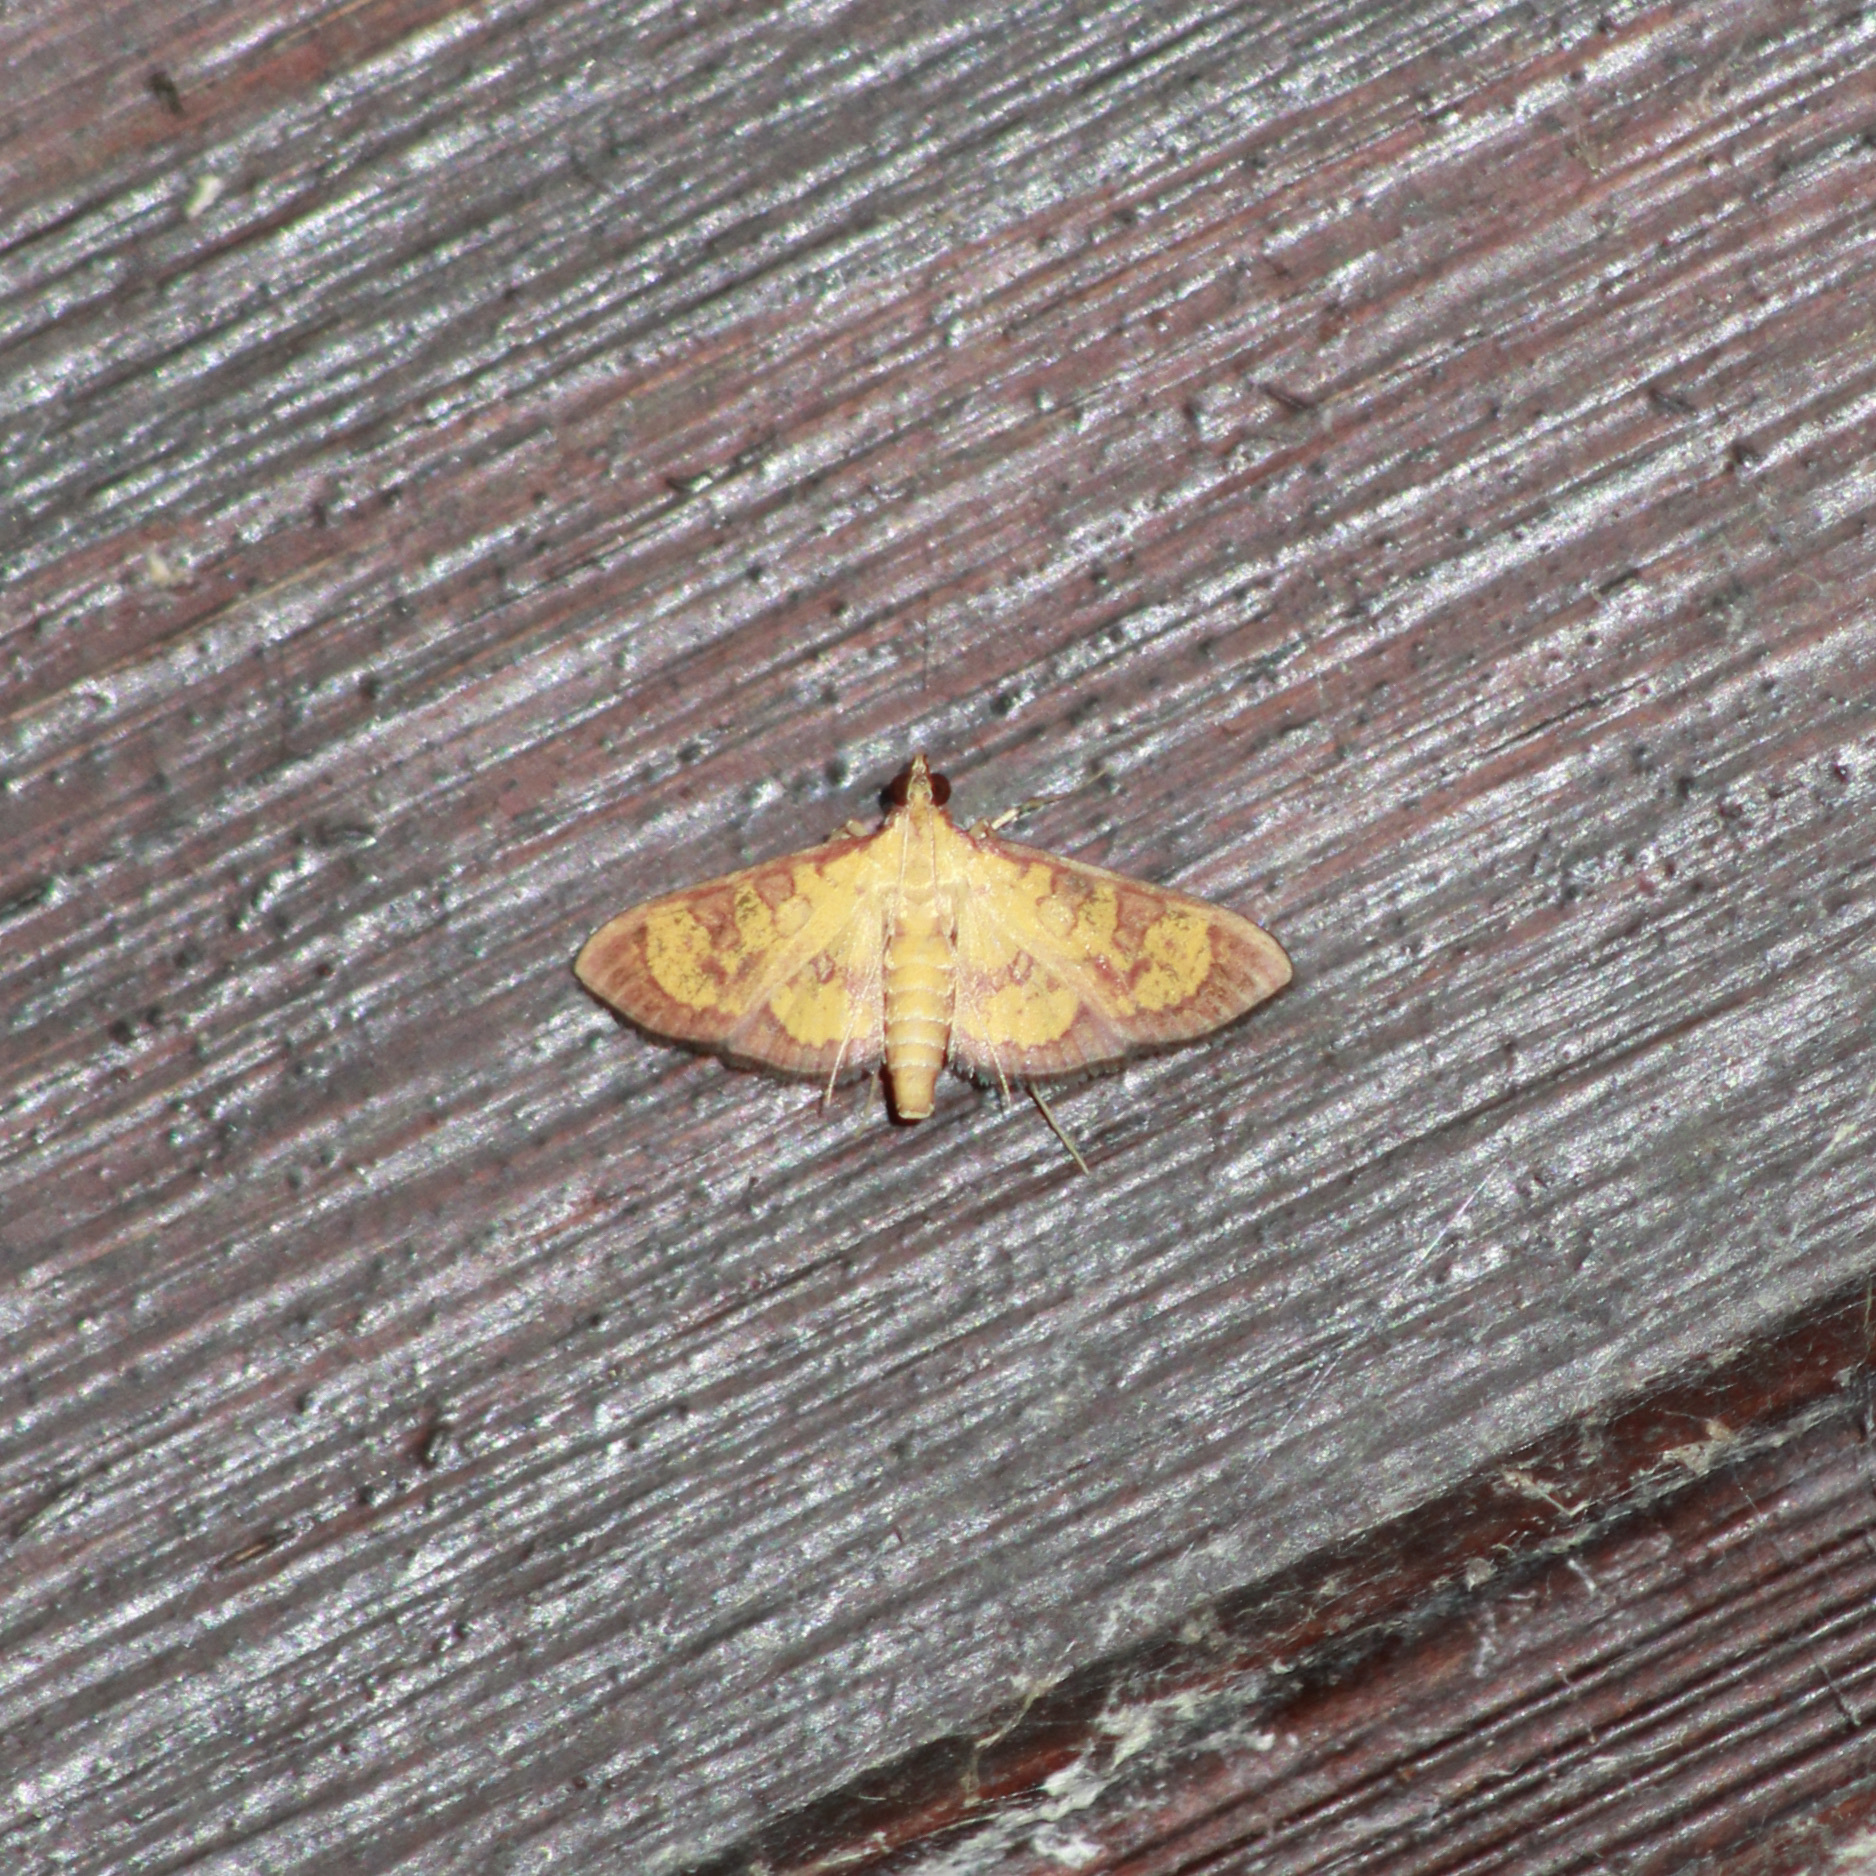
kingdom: Animalia
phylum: Arthropoda
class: Insecta
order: Lepidoptera
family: Crambidae
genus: Trithyris
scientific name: Trithyris
